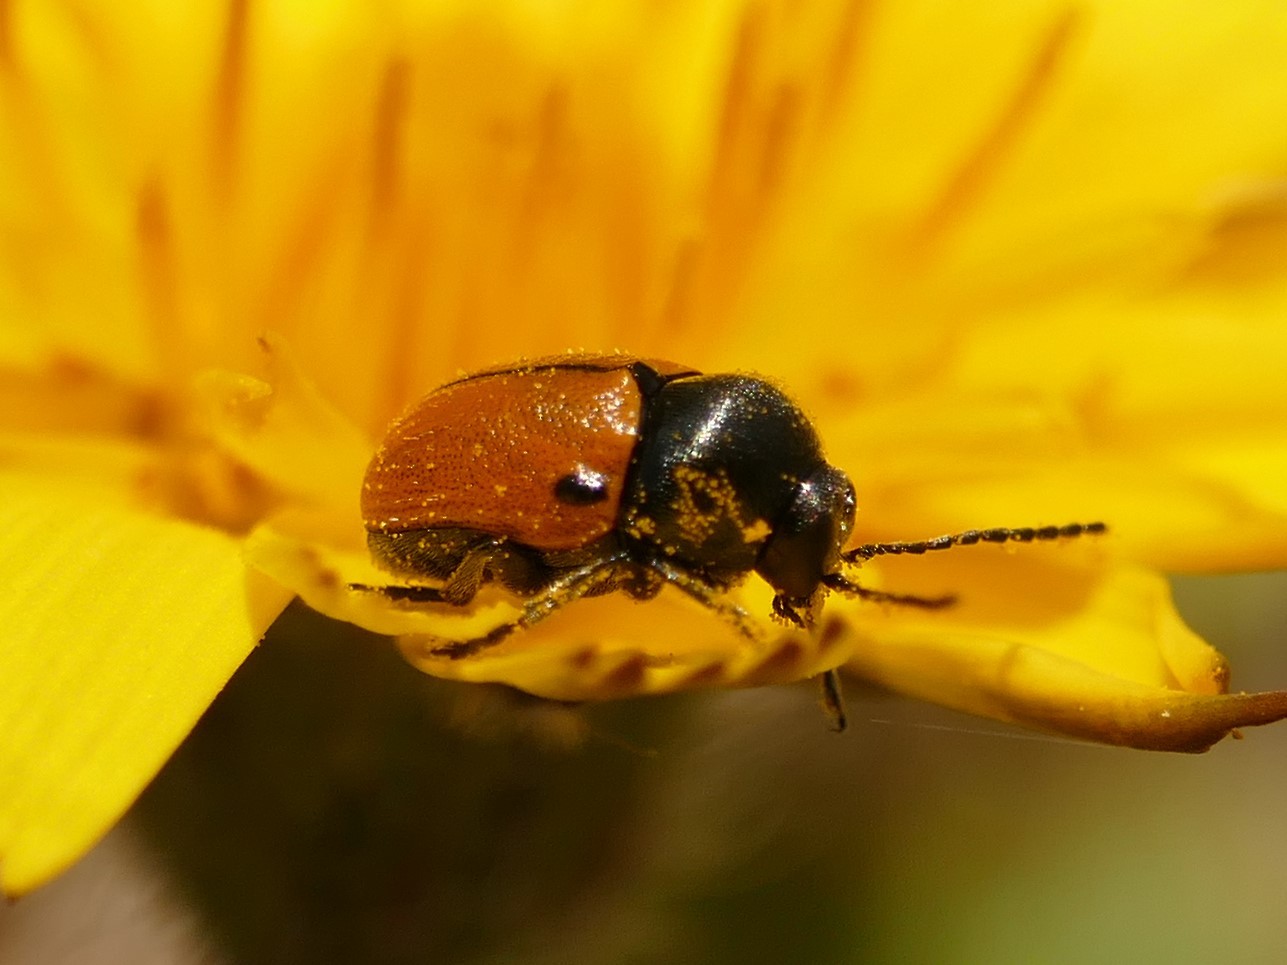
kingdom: Animalia
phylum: Arthropoda
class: Insecta
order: Coleoptera
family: Chrysomelidae
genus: Cryptocephalus
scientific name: Cryptocephalus rugicollis
